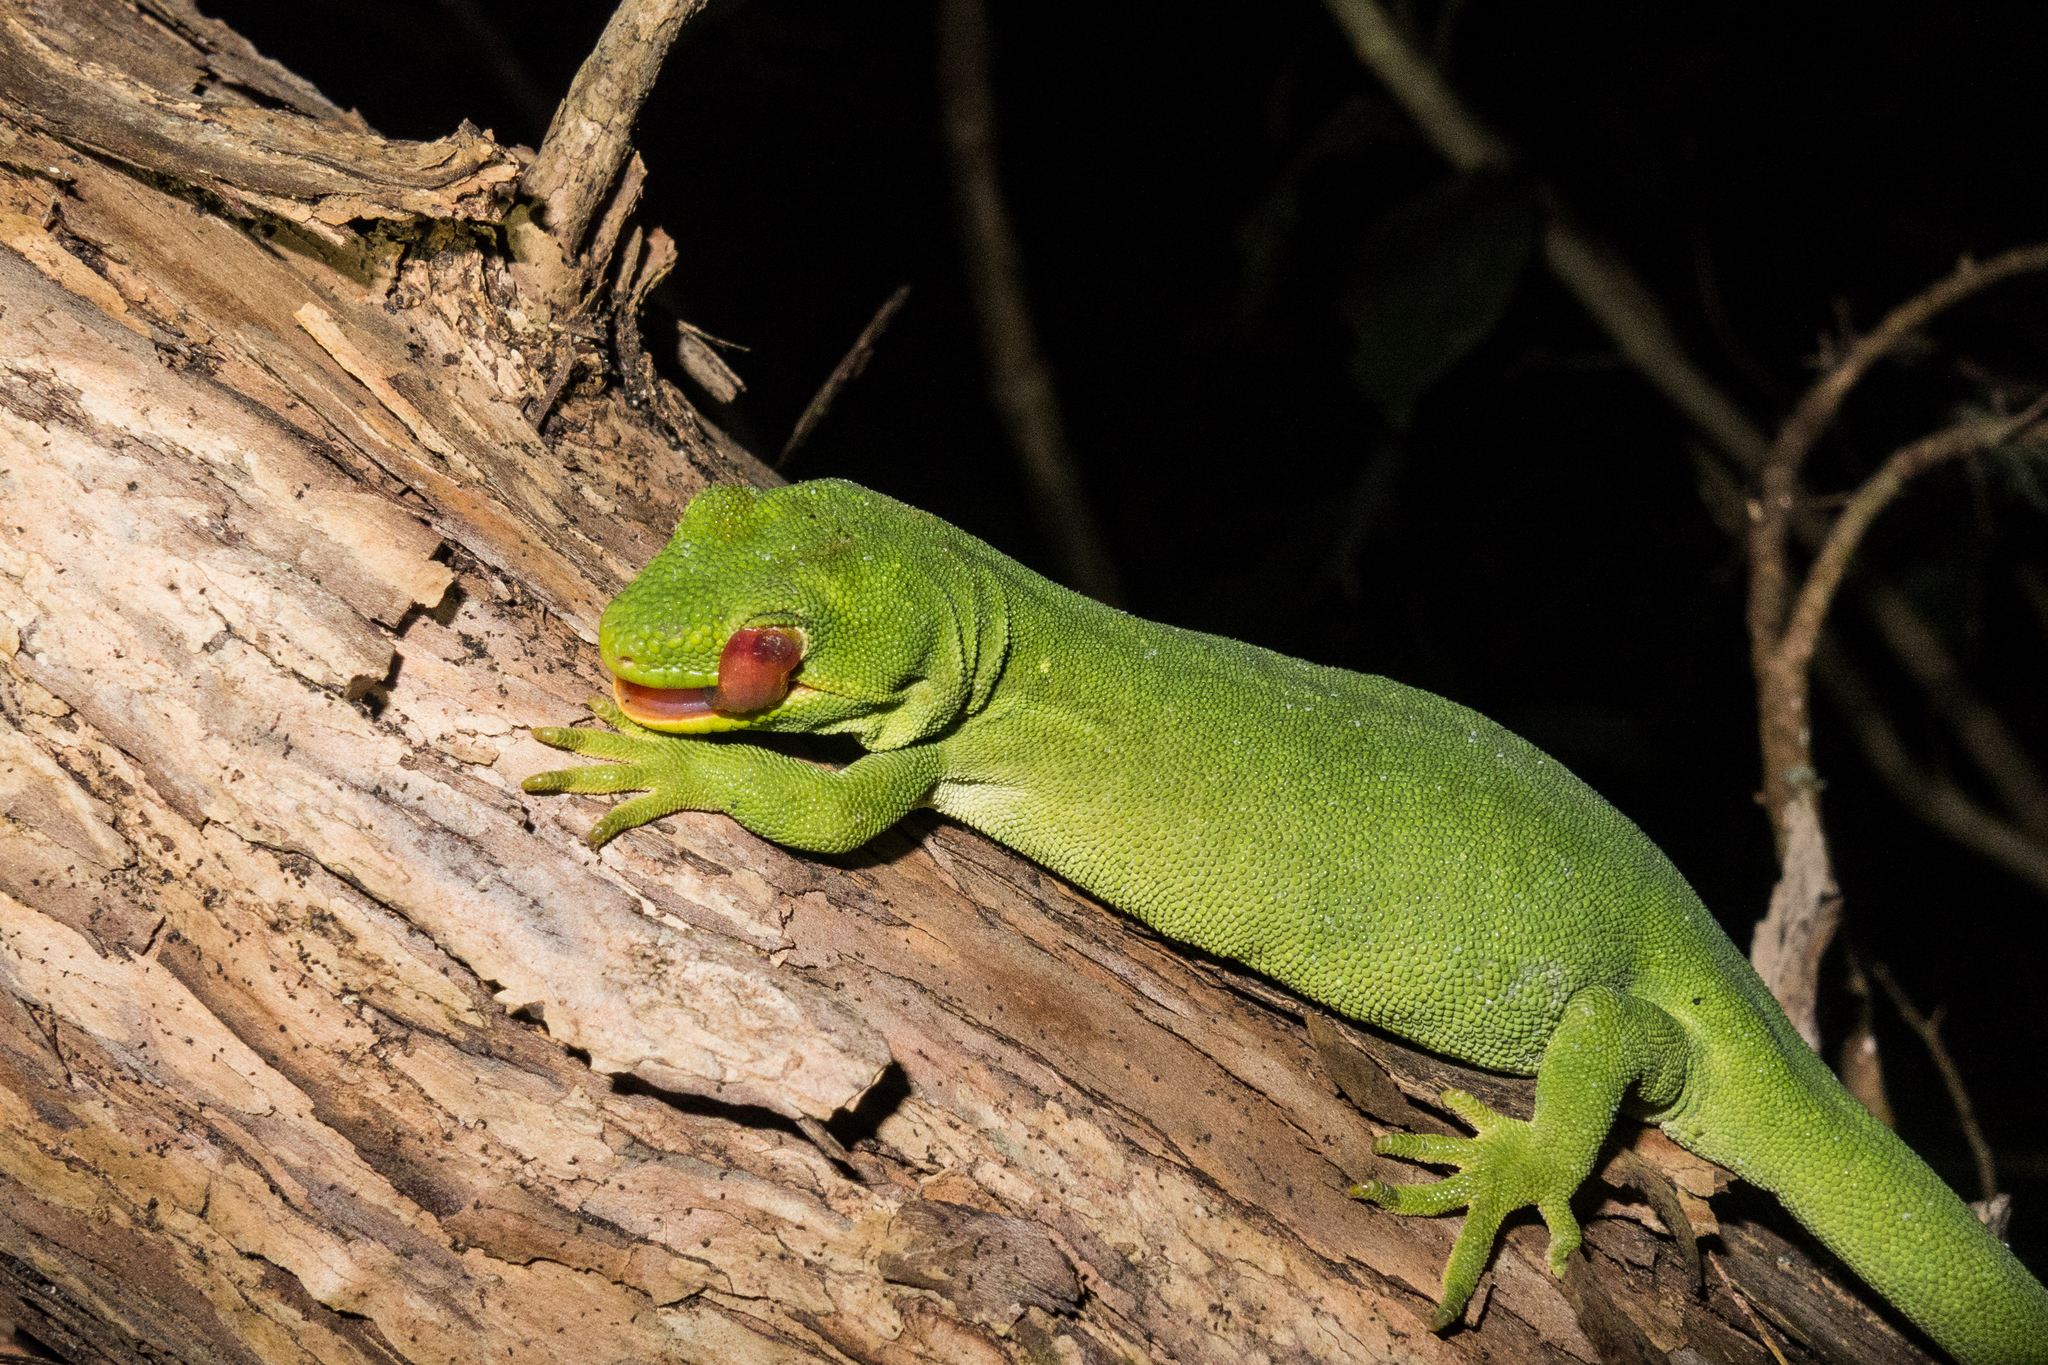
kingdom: Animalia
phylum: Chordata
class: Squamata
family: Diplodactylidae
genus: Naultinus
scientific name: Naultinus stellatus
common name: Nelson green gecko
